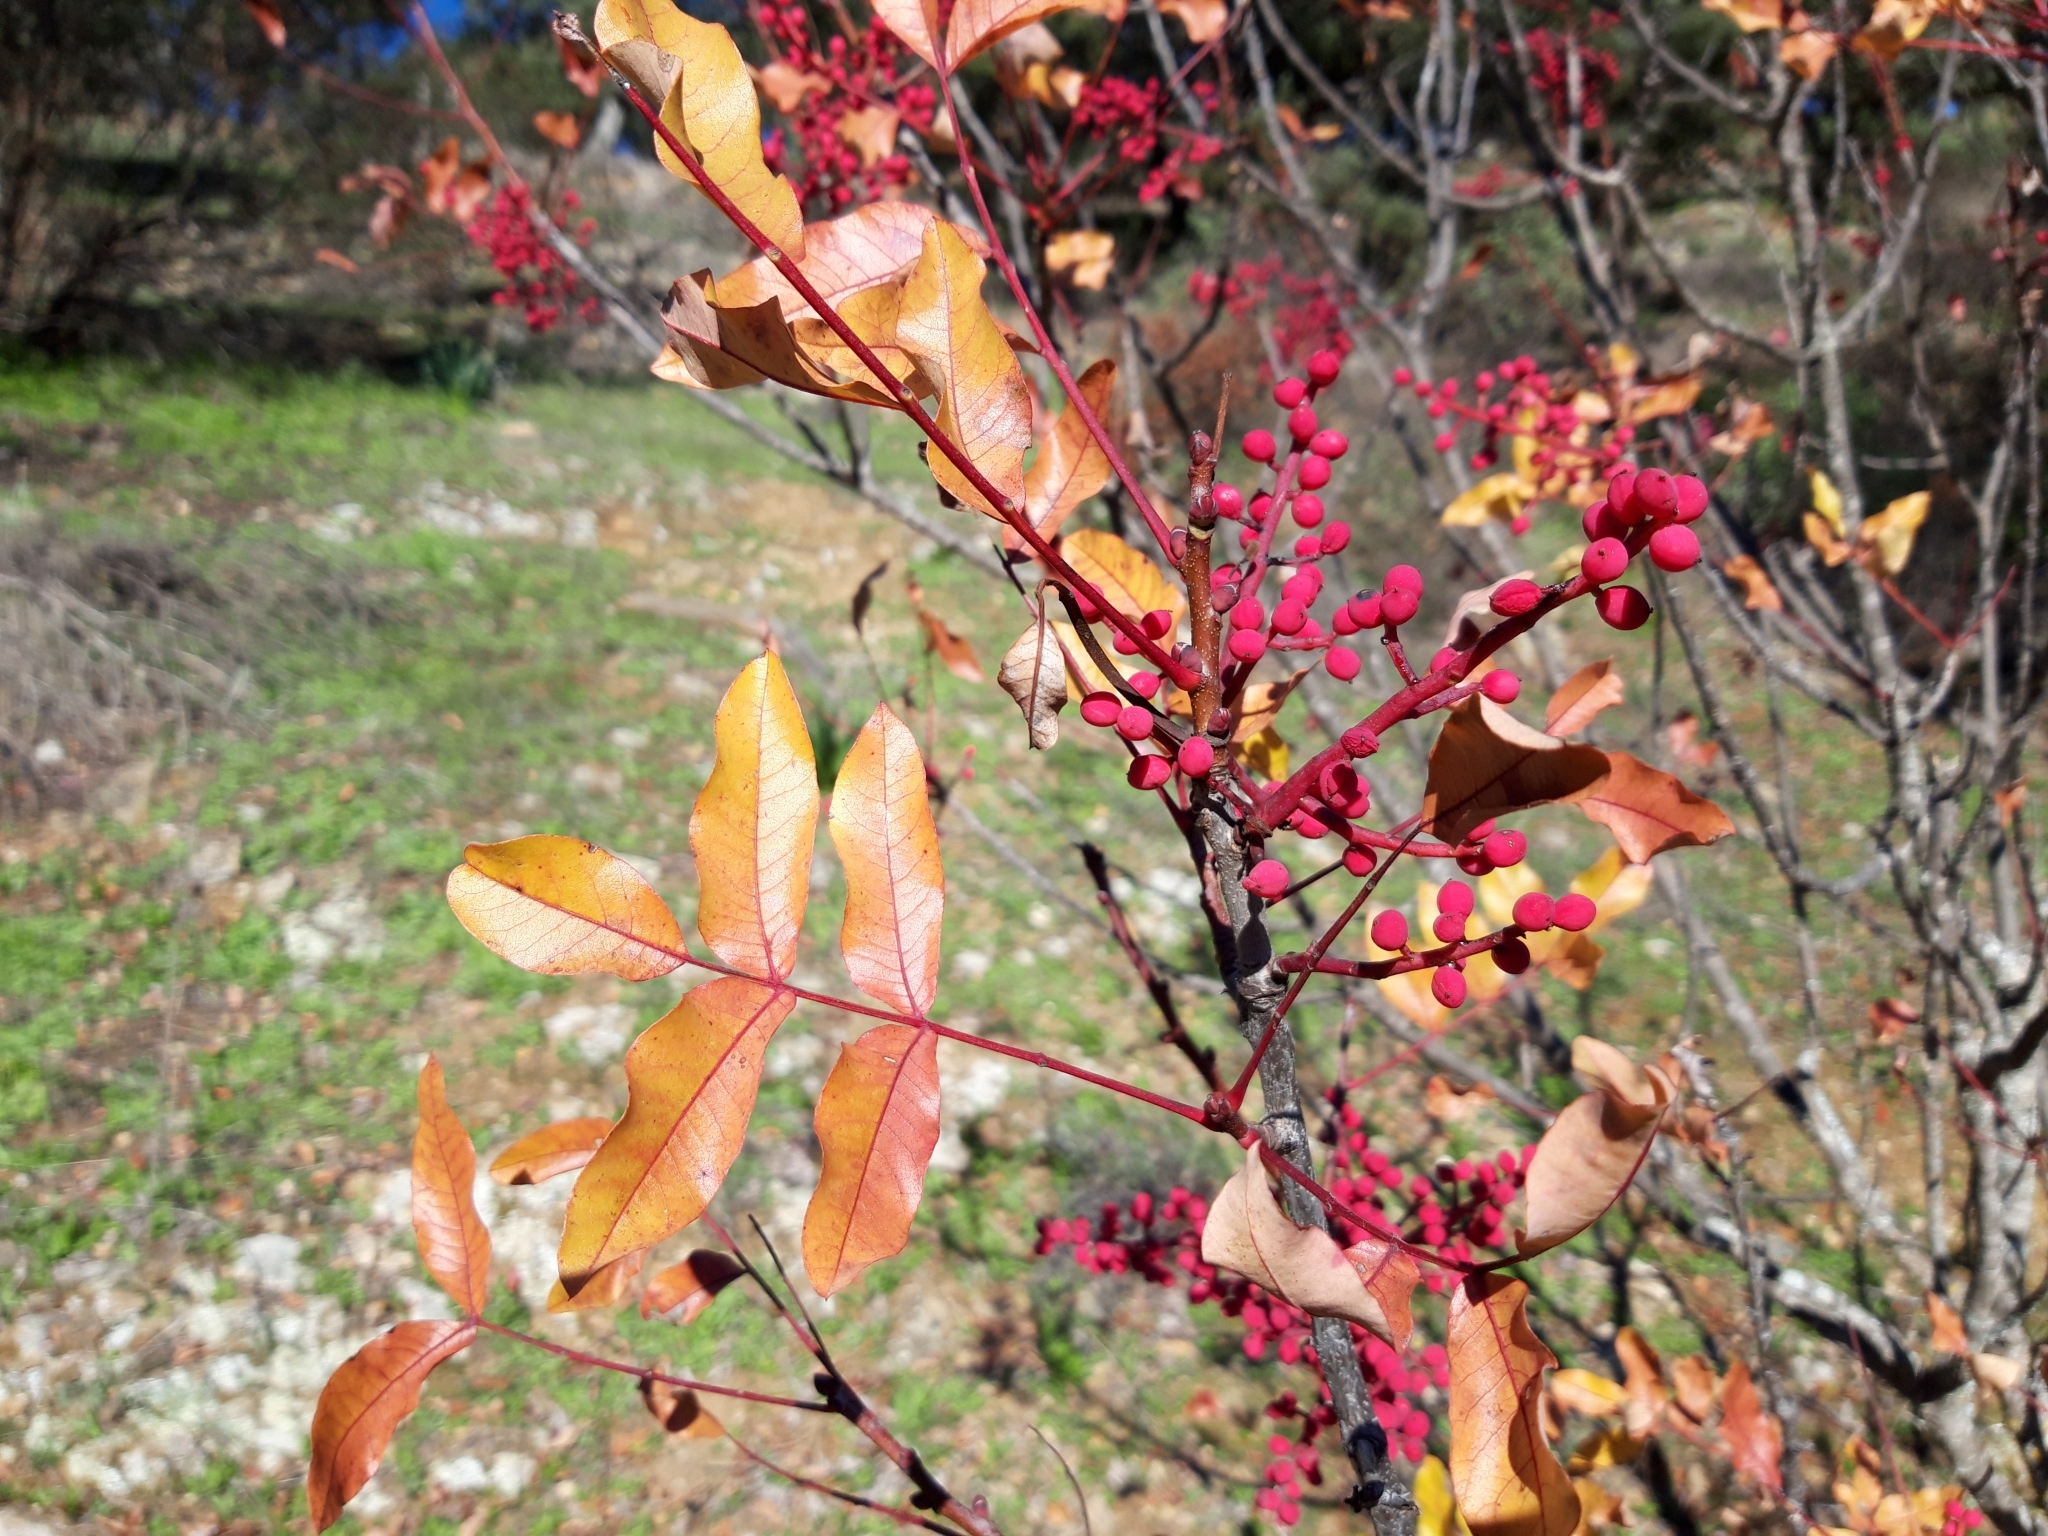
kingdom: Plantae
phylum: Tracheophyta
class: Magnoliopsida
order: Sapindales
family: Anacardiaceae
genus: Pistacia
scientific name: Pistacia terebinthus
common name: Terebinth
